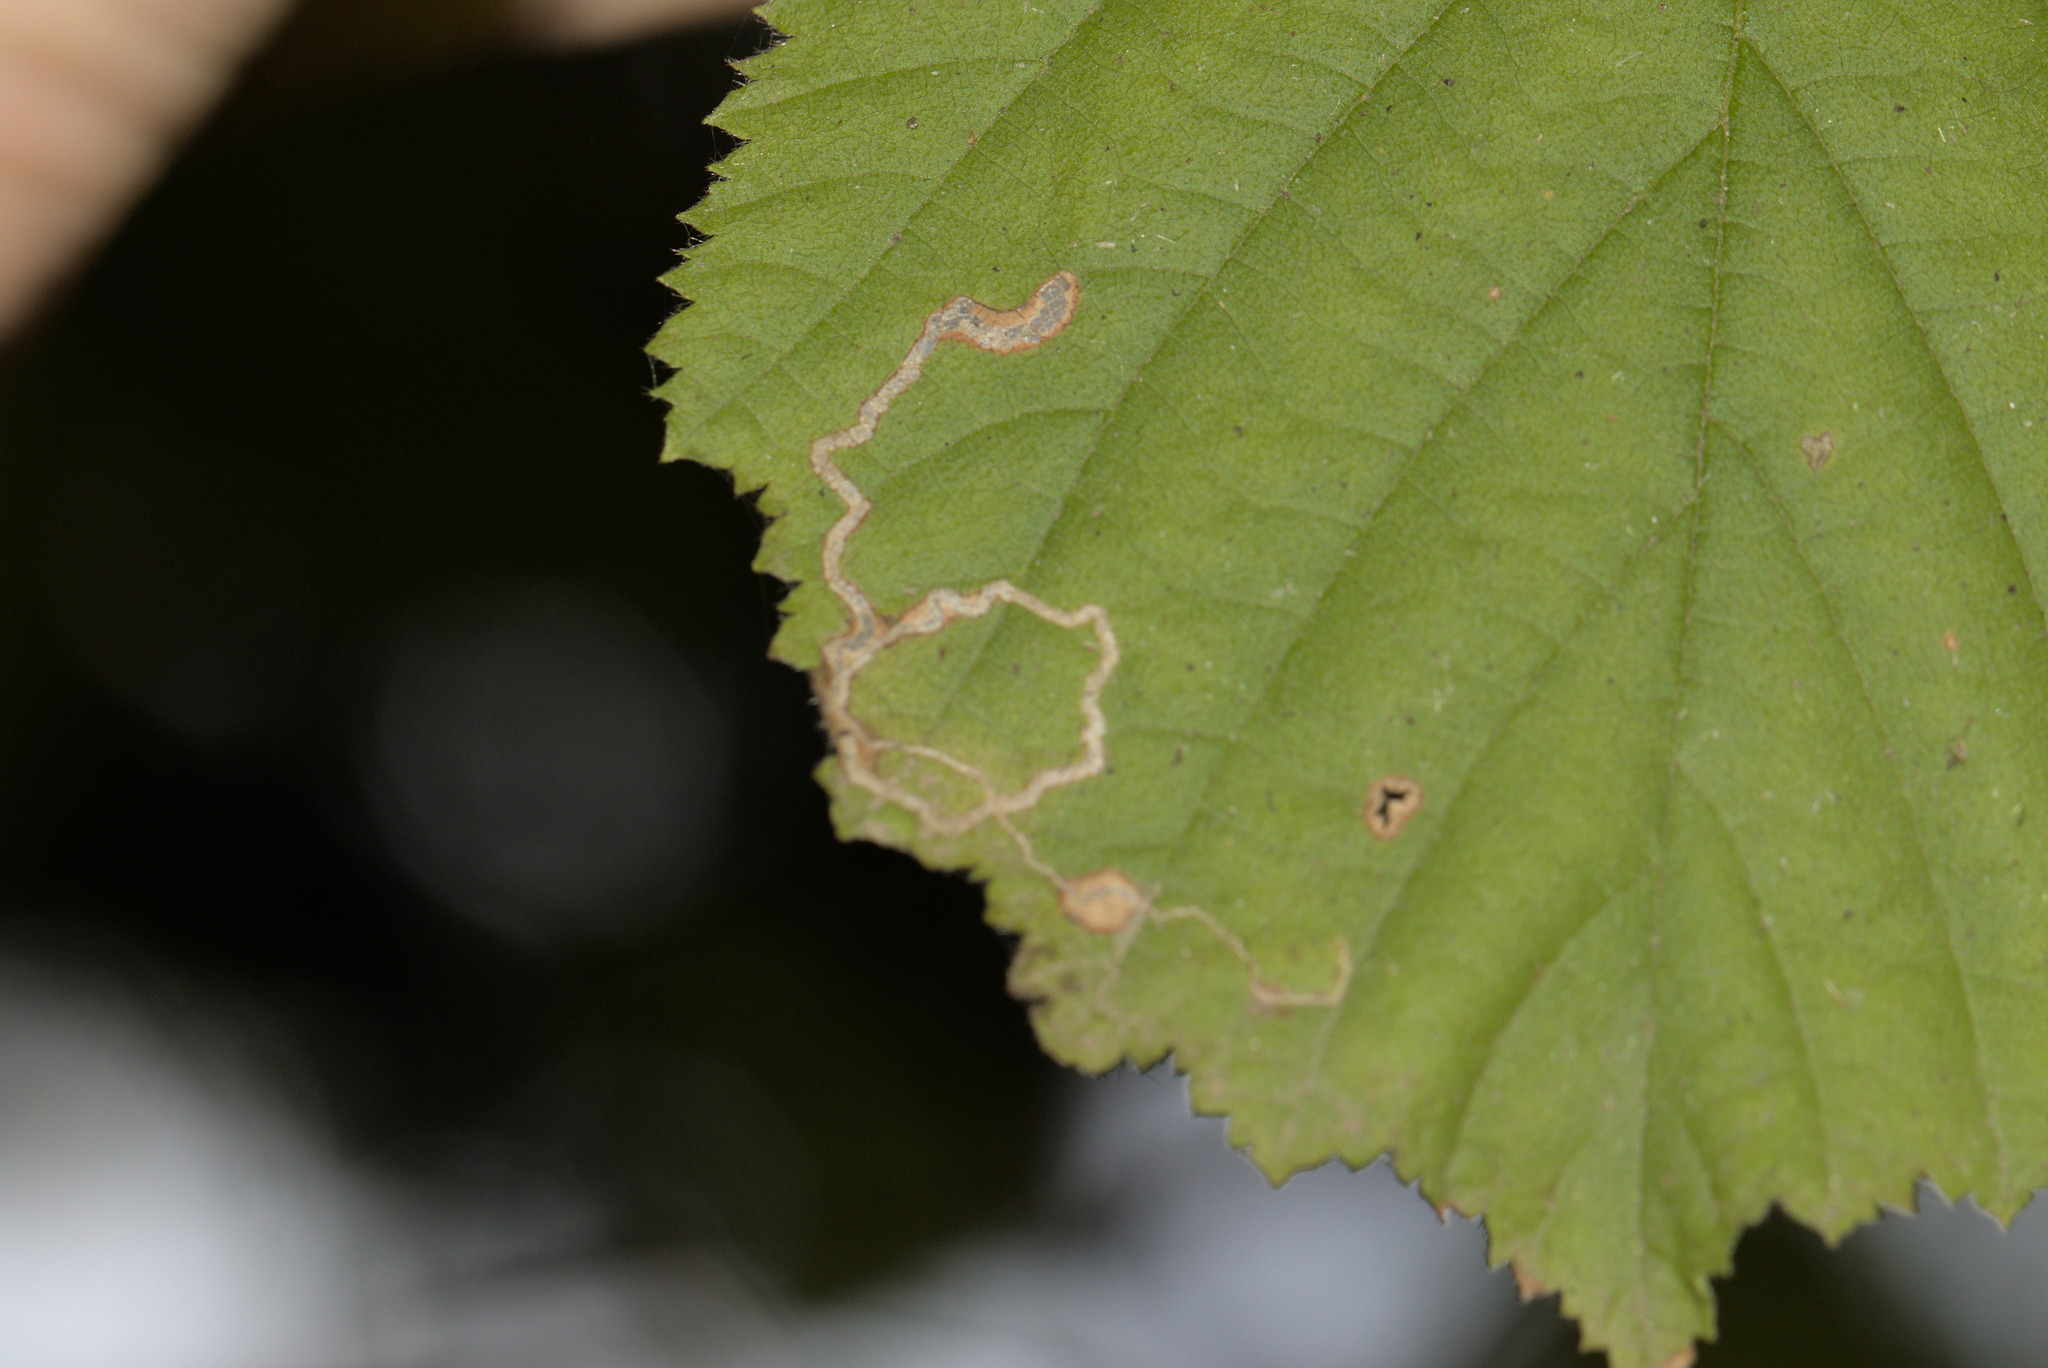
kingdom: Animalia
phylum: Arthropoda
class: Insecta
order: Lepidoptera
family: Nepticulidae
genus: Stigmella
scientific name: Stigmella microtheriella
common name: Nut-tree pigmy
